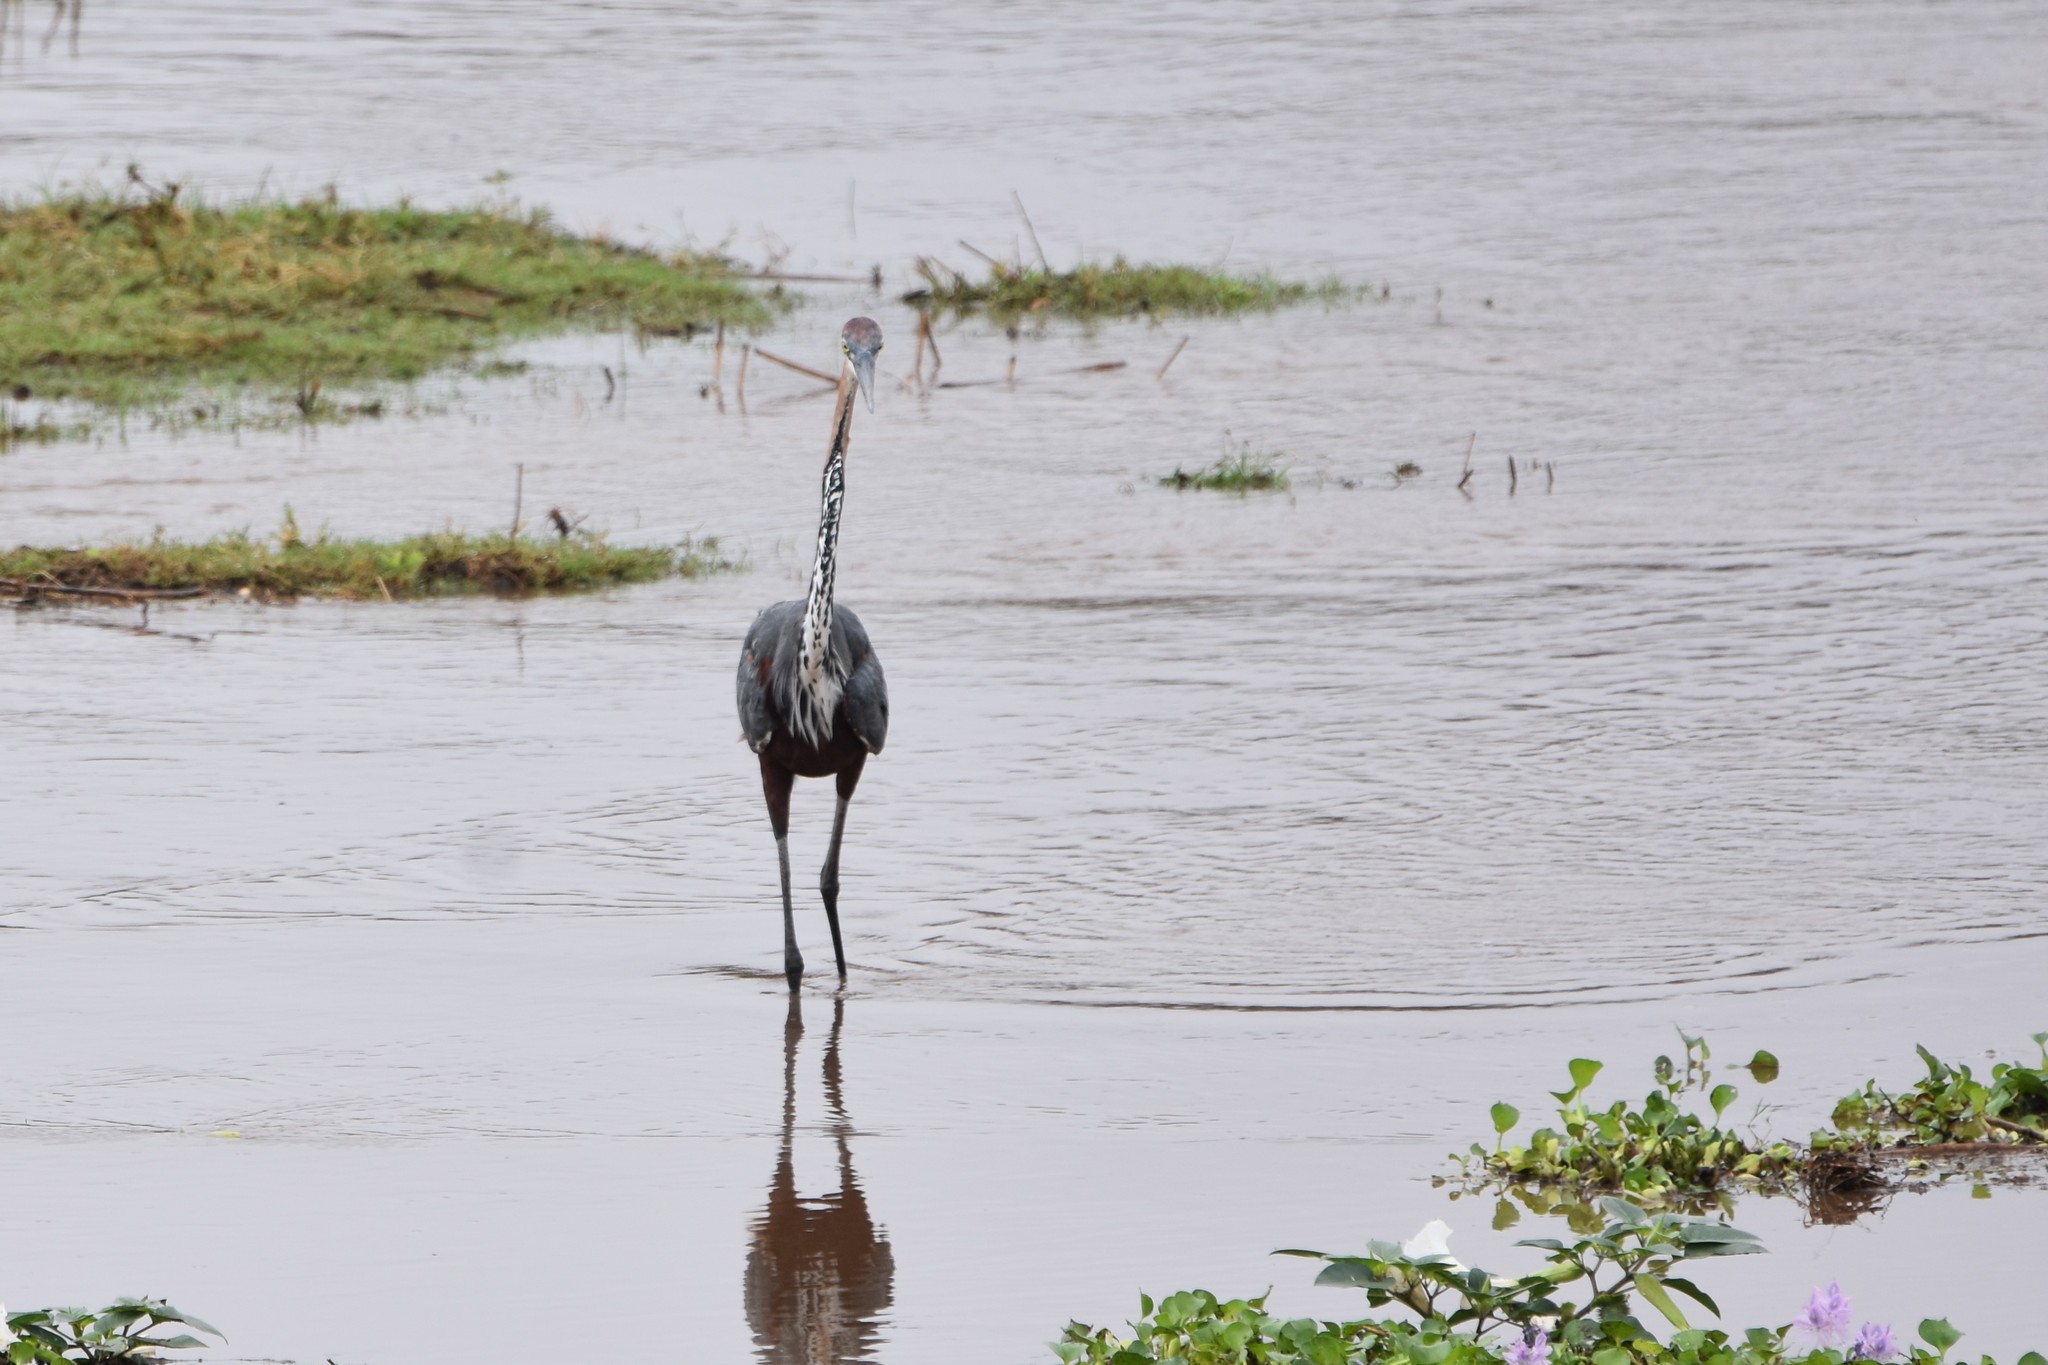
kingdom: Animalia
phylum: Chordata
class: Aves
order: Pelecaniformes
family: Ardeidae
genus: Ardea
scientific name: Ardea goliath
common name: Goliath heron
